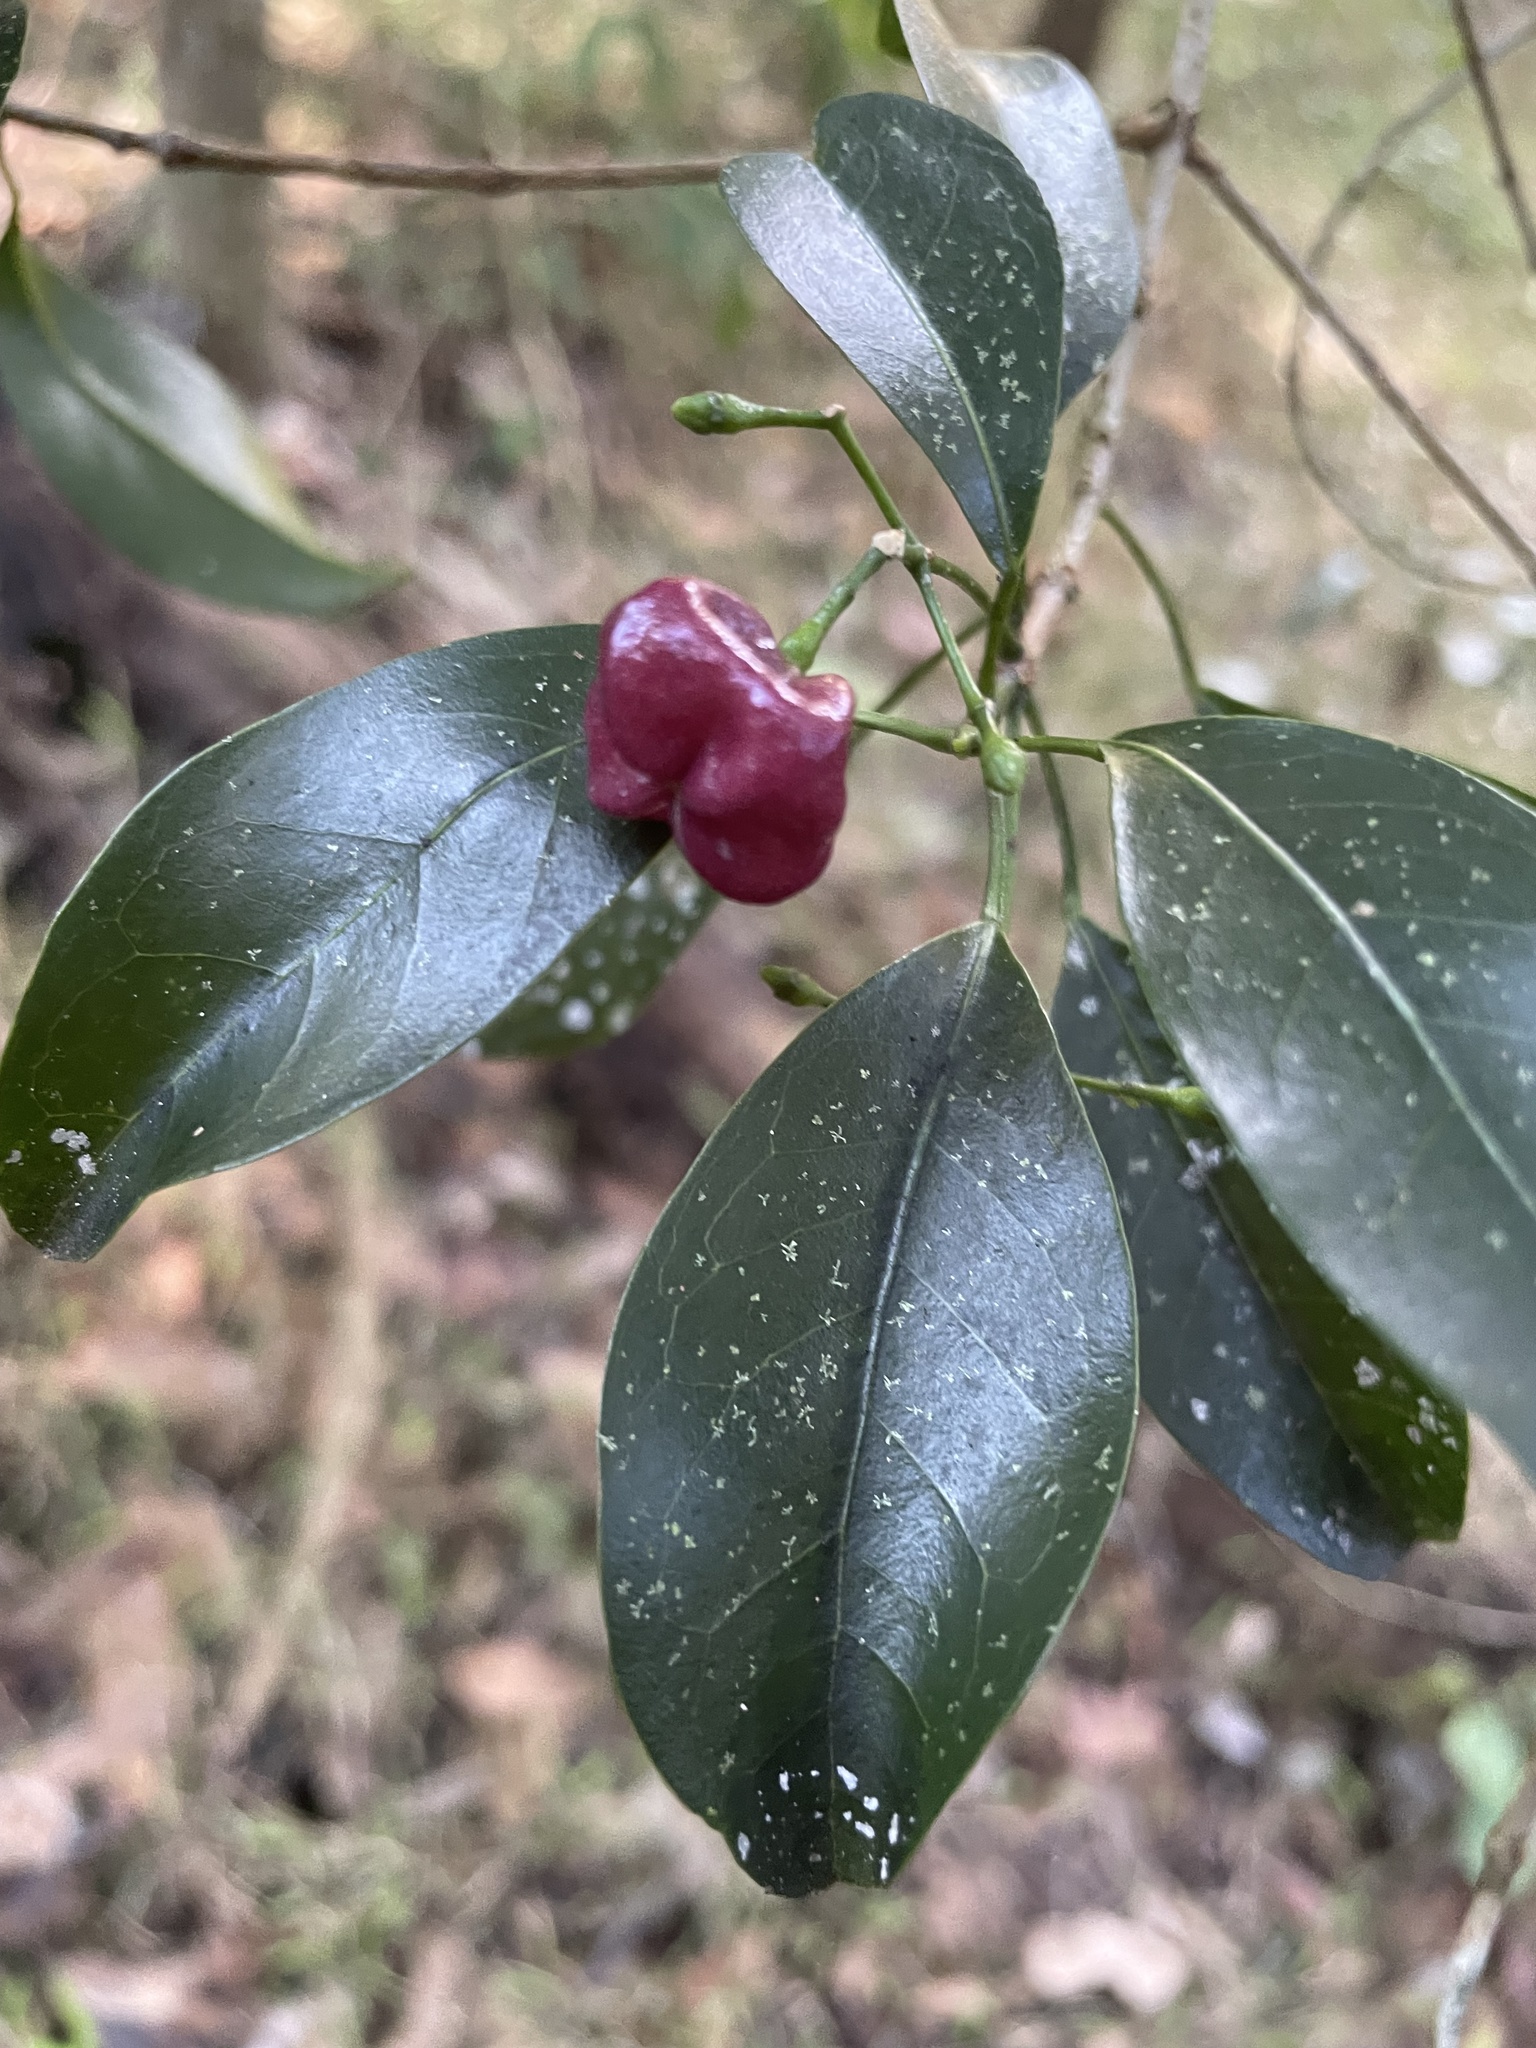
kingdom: Plantae
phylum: Tracheophyta
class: Magnoliopsida
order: Sapindales
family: Rutaceae
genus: Acronychia
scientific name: Acronychia laevis
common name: Hard aspen
